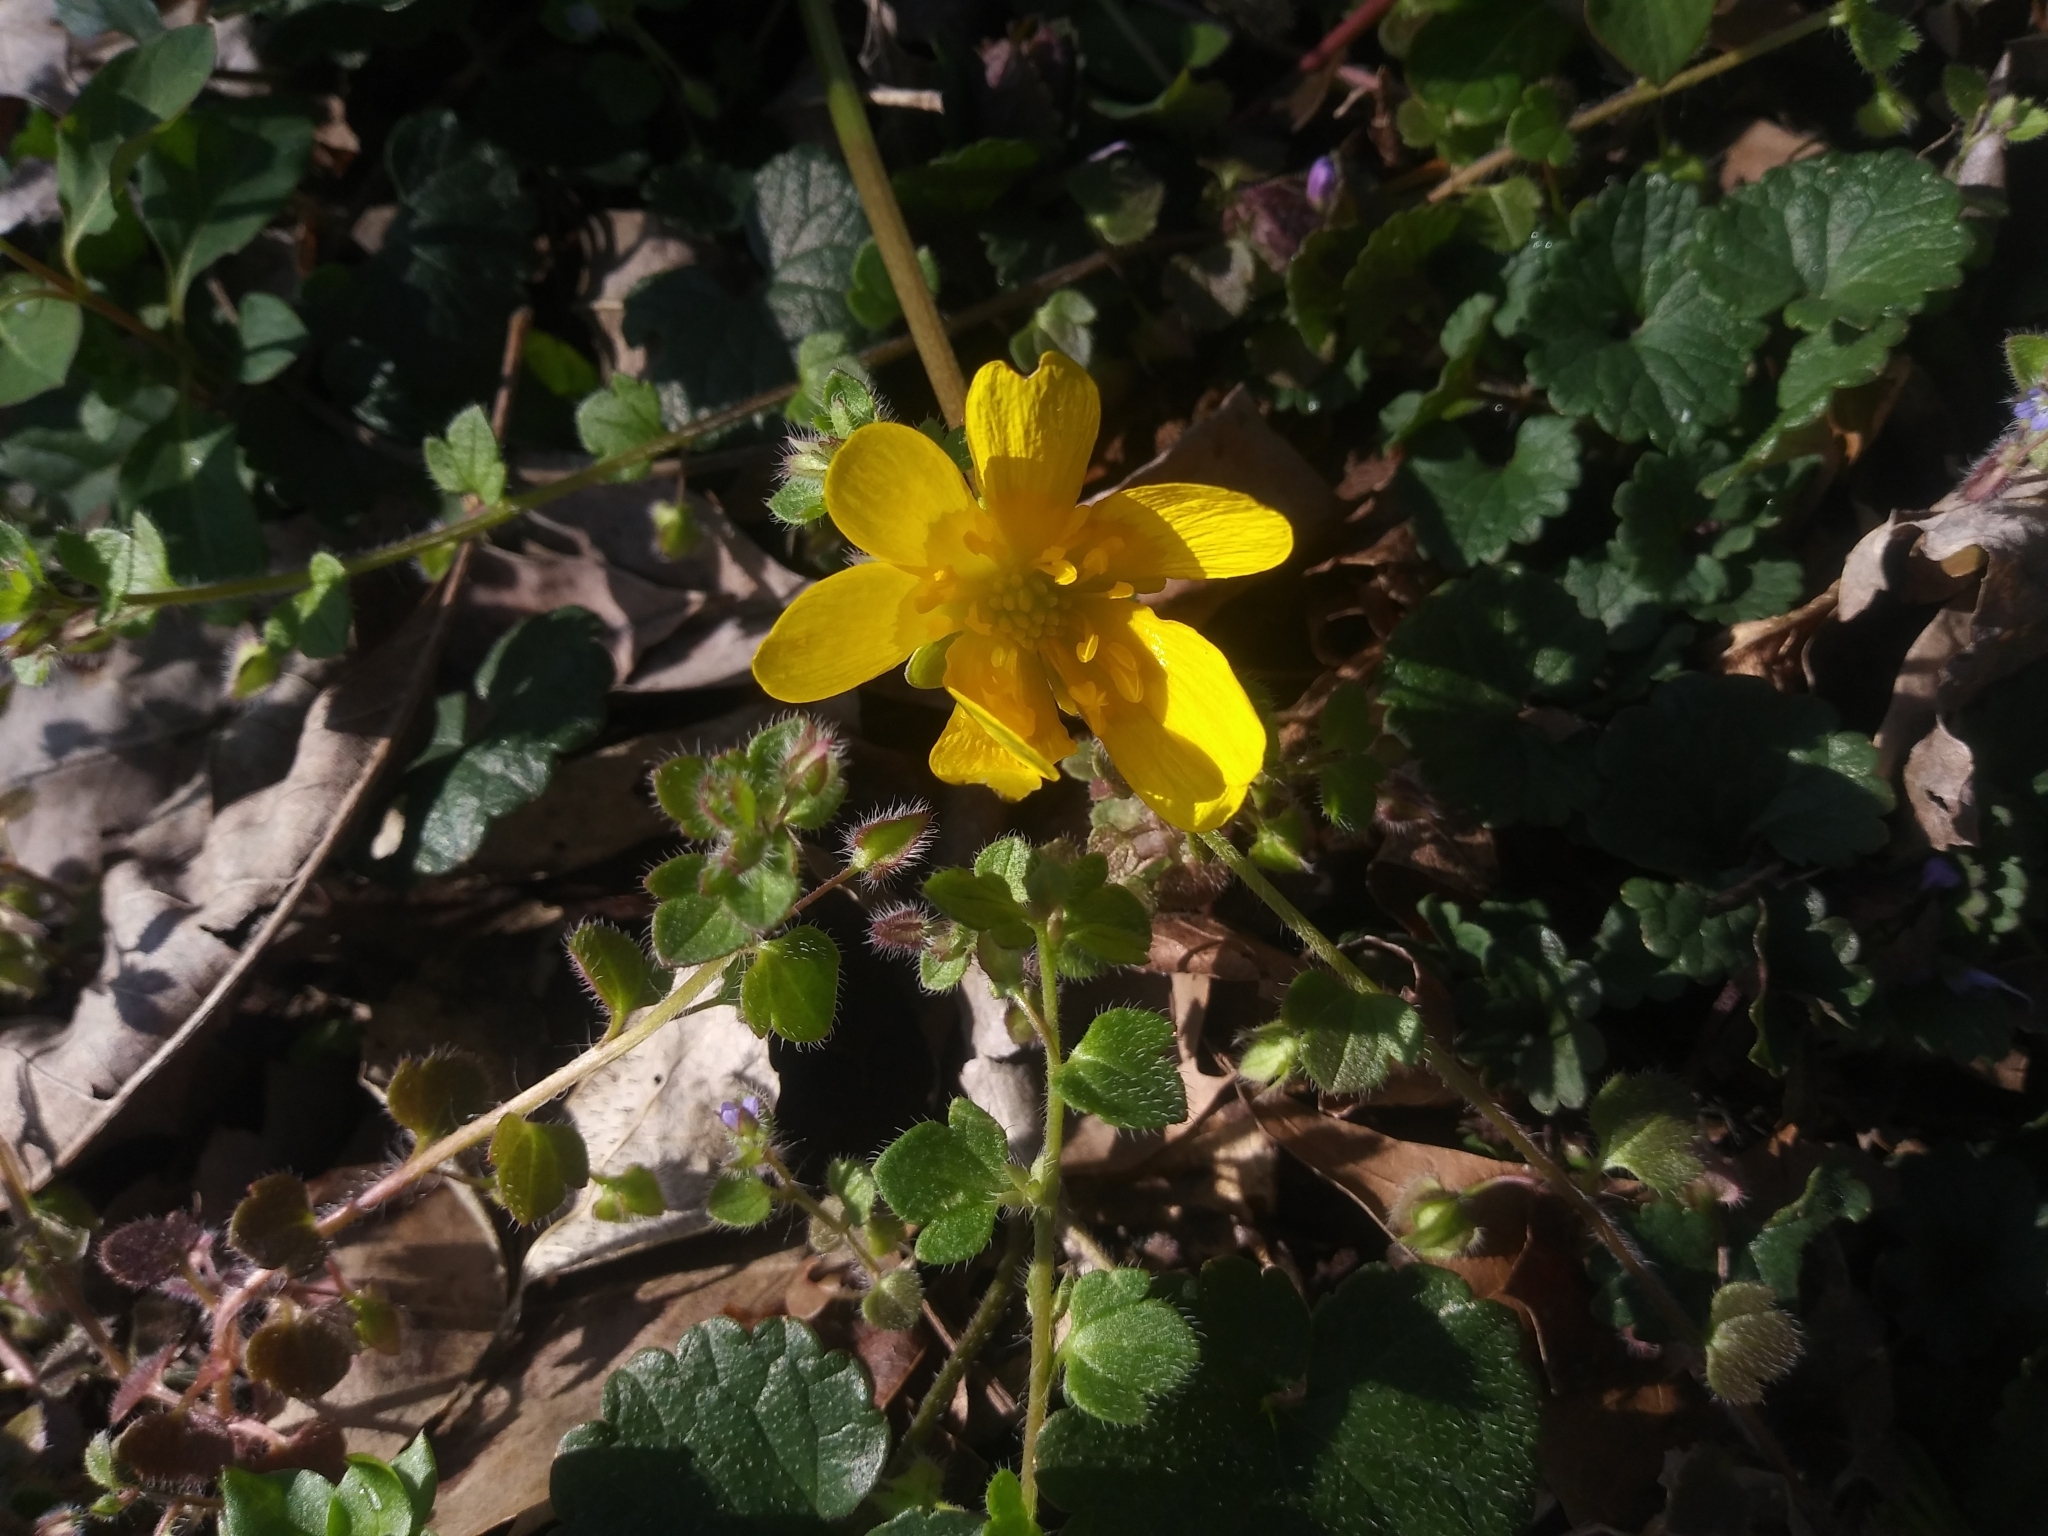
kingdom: Plantae
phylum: Tracheophyta
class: Magnoliopsida
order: Ranunculales
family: Ranunculaceae
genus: Ficaria
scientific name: Ficaria verna
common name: Lesser celandine
